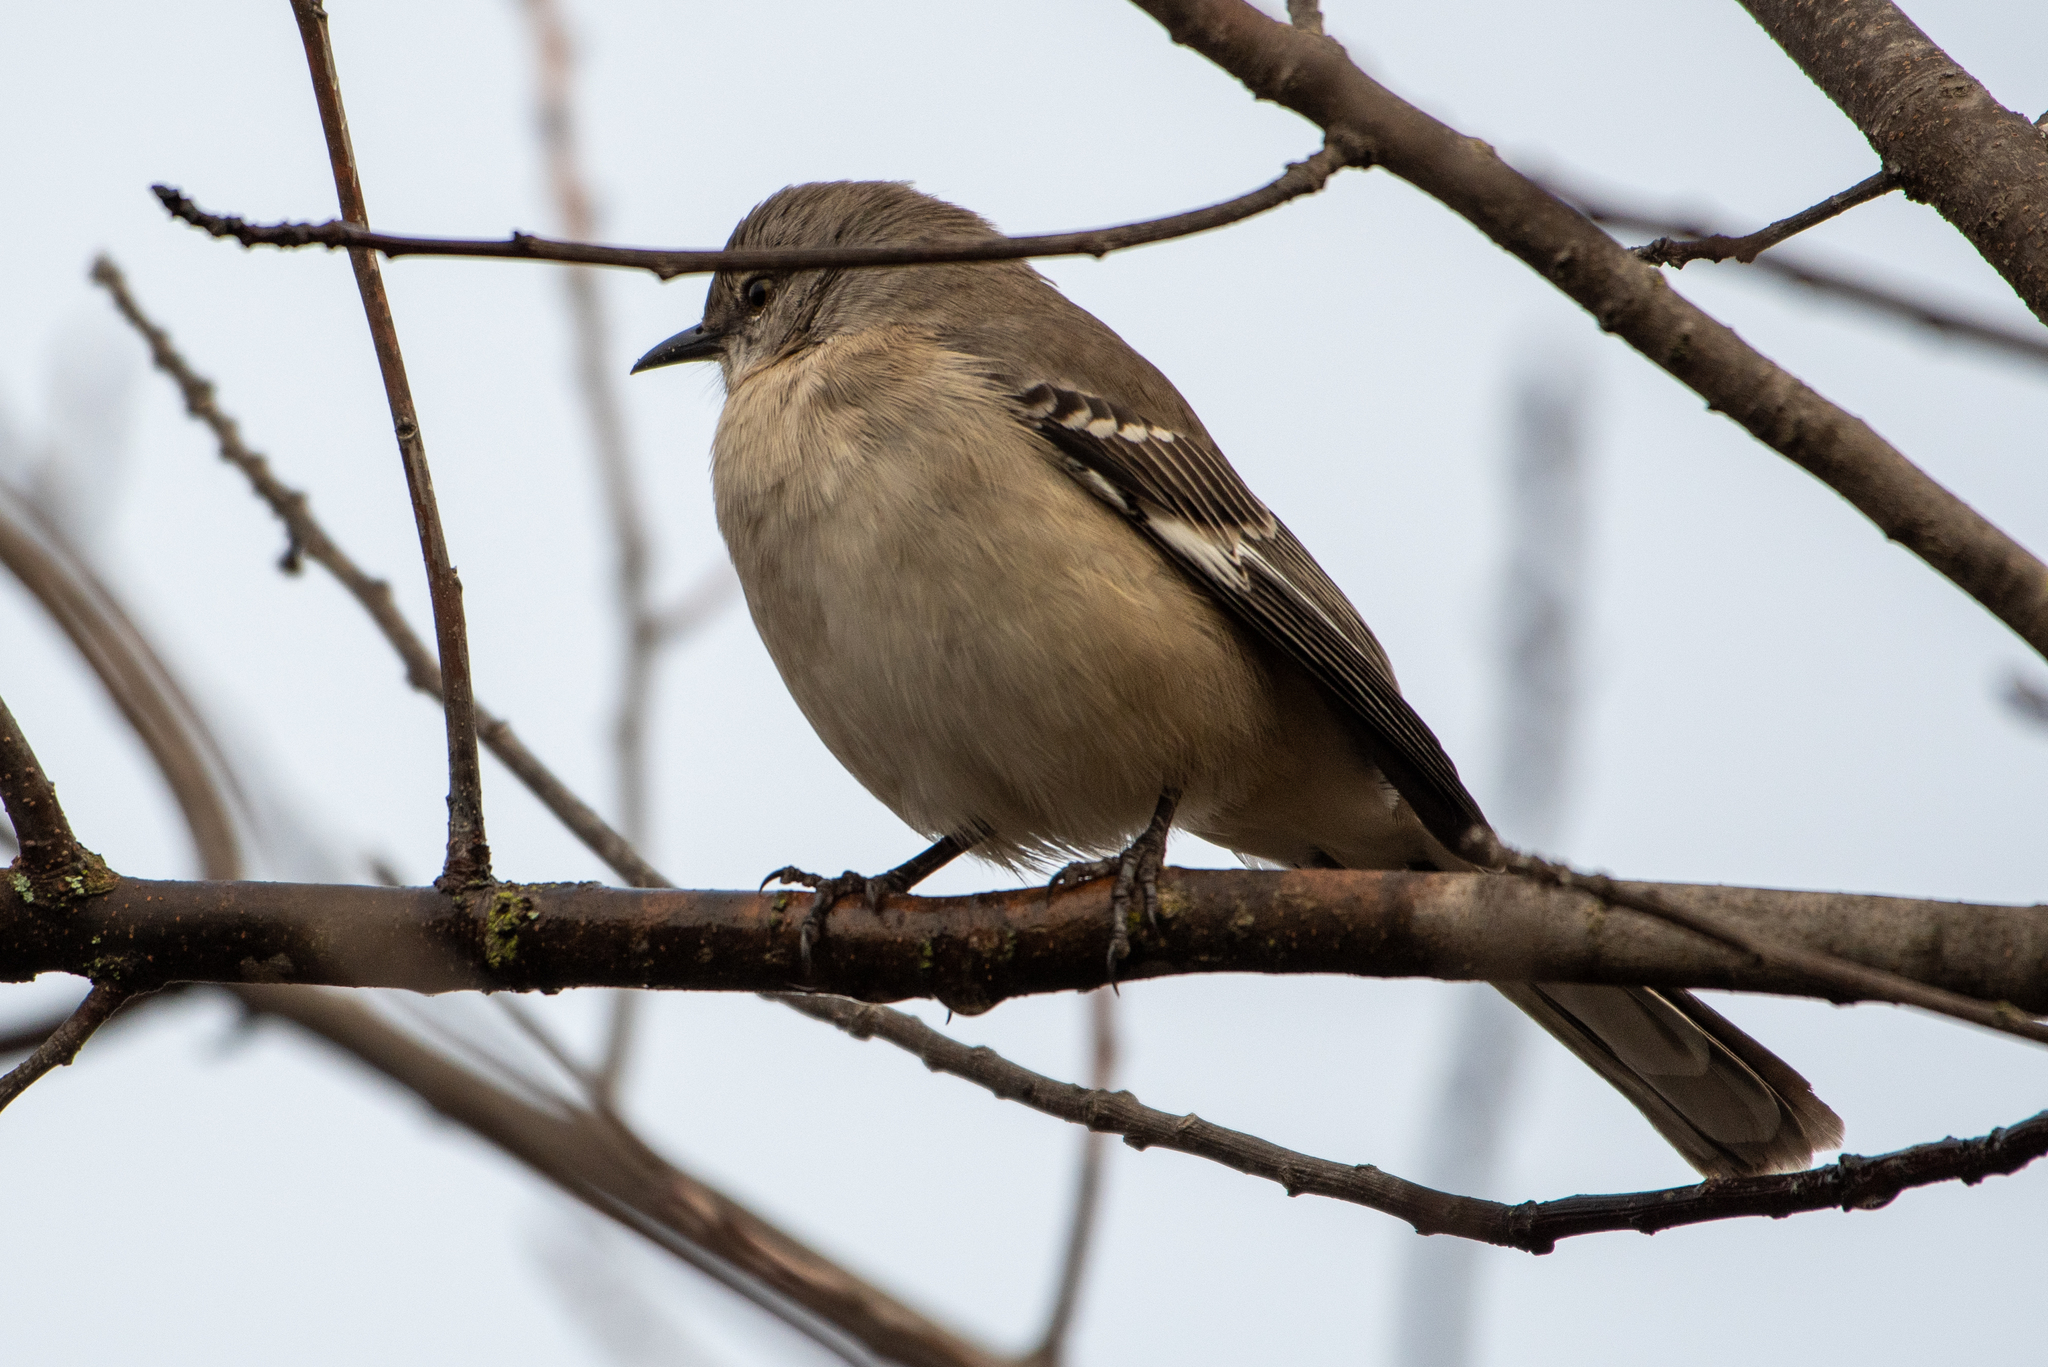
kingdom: Animalia
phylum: Chordata
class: Aves
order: Passeriformes
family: Mimidae
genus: Mimus
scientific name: Mimus polyglottos
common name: Northern mockingbird
